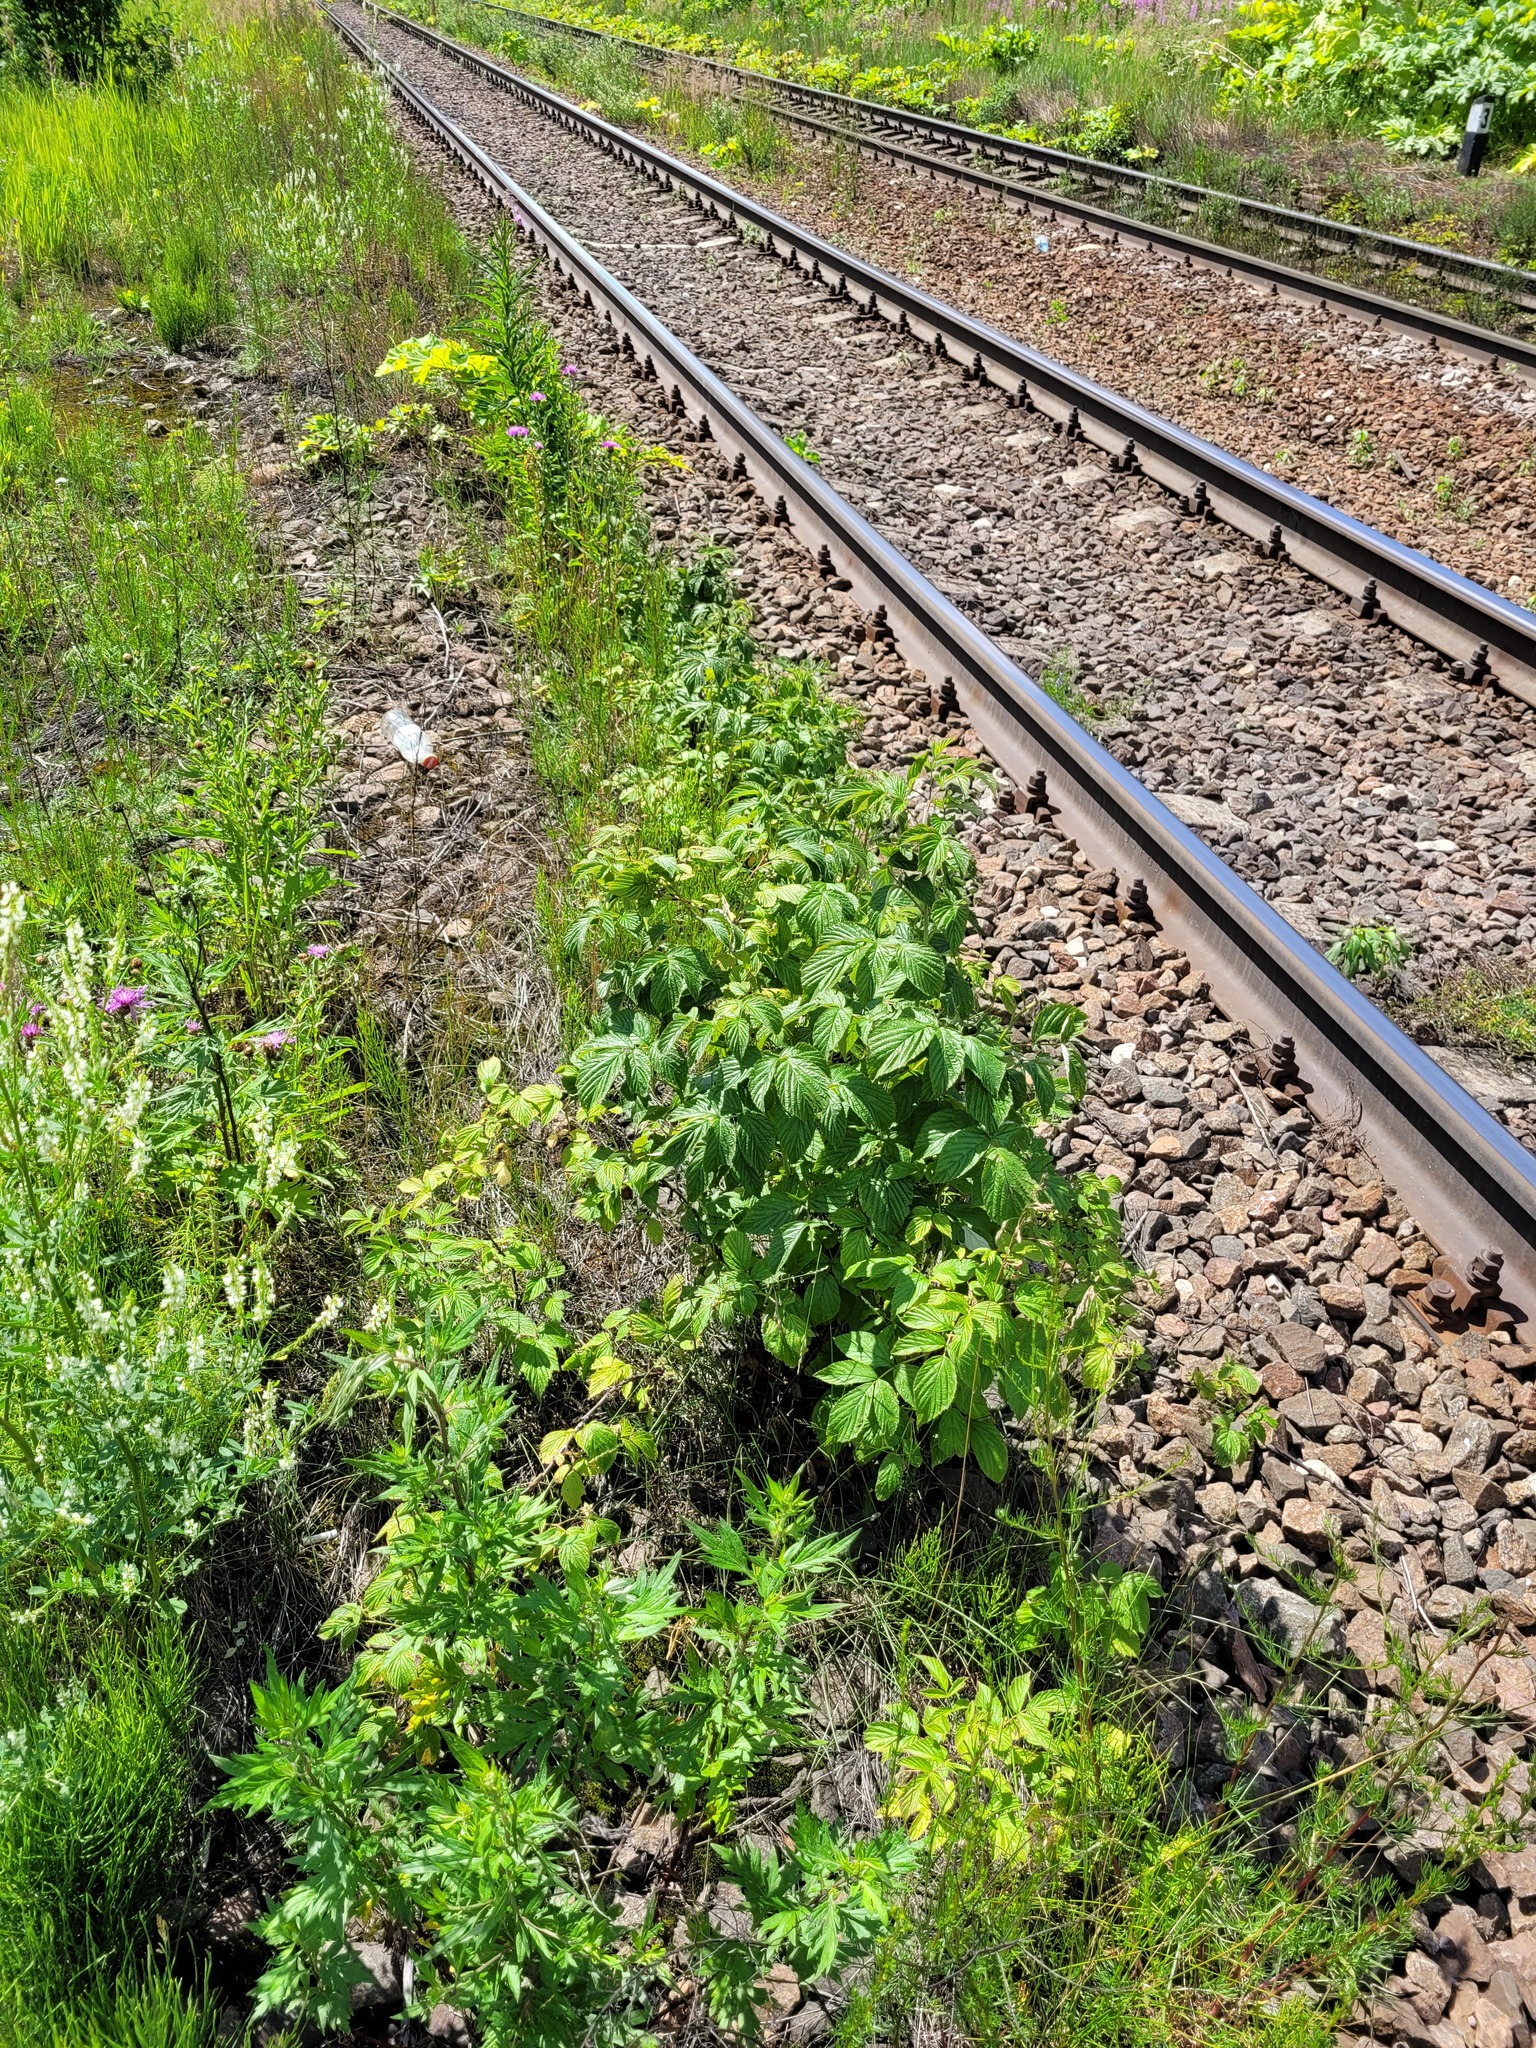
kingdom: Plantae
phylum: Tracheophyta
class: Magnoliopsida
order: Rosales
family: Rosaceae
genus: Rubus
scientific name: Rubus idaeus
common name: Raspberry
